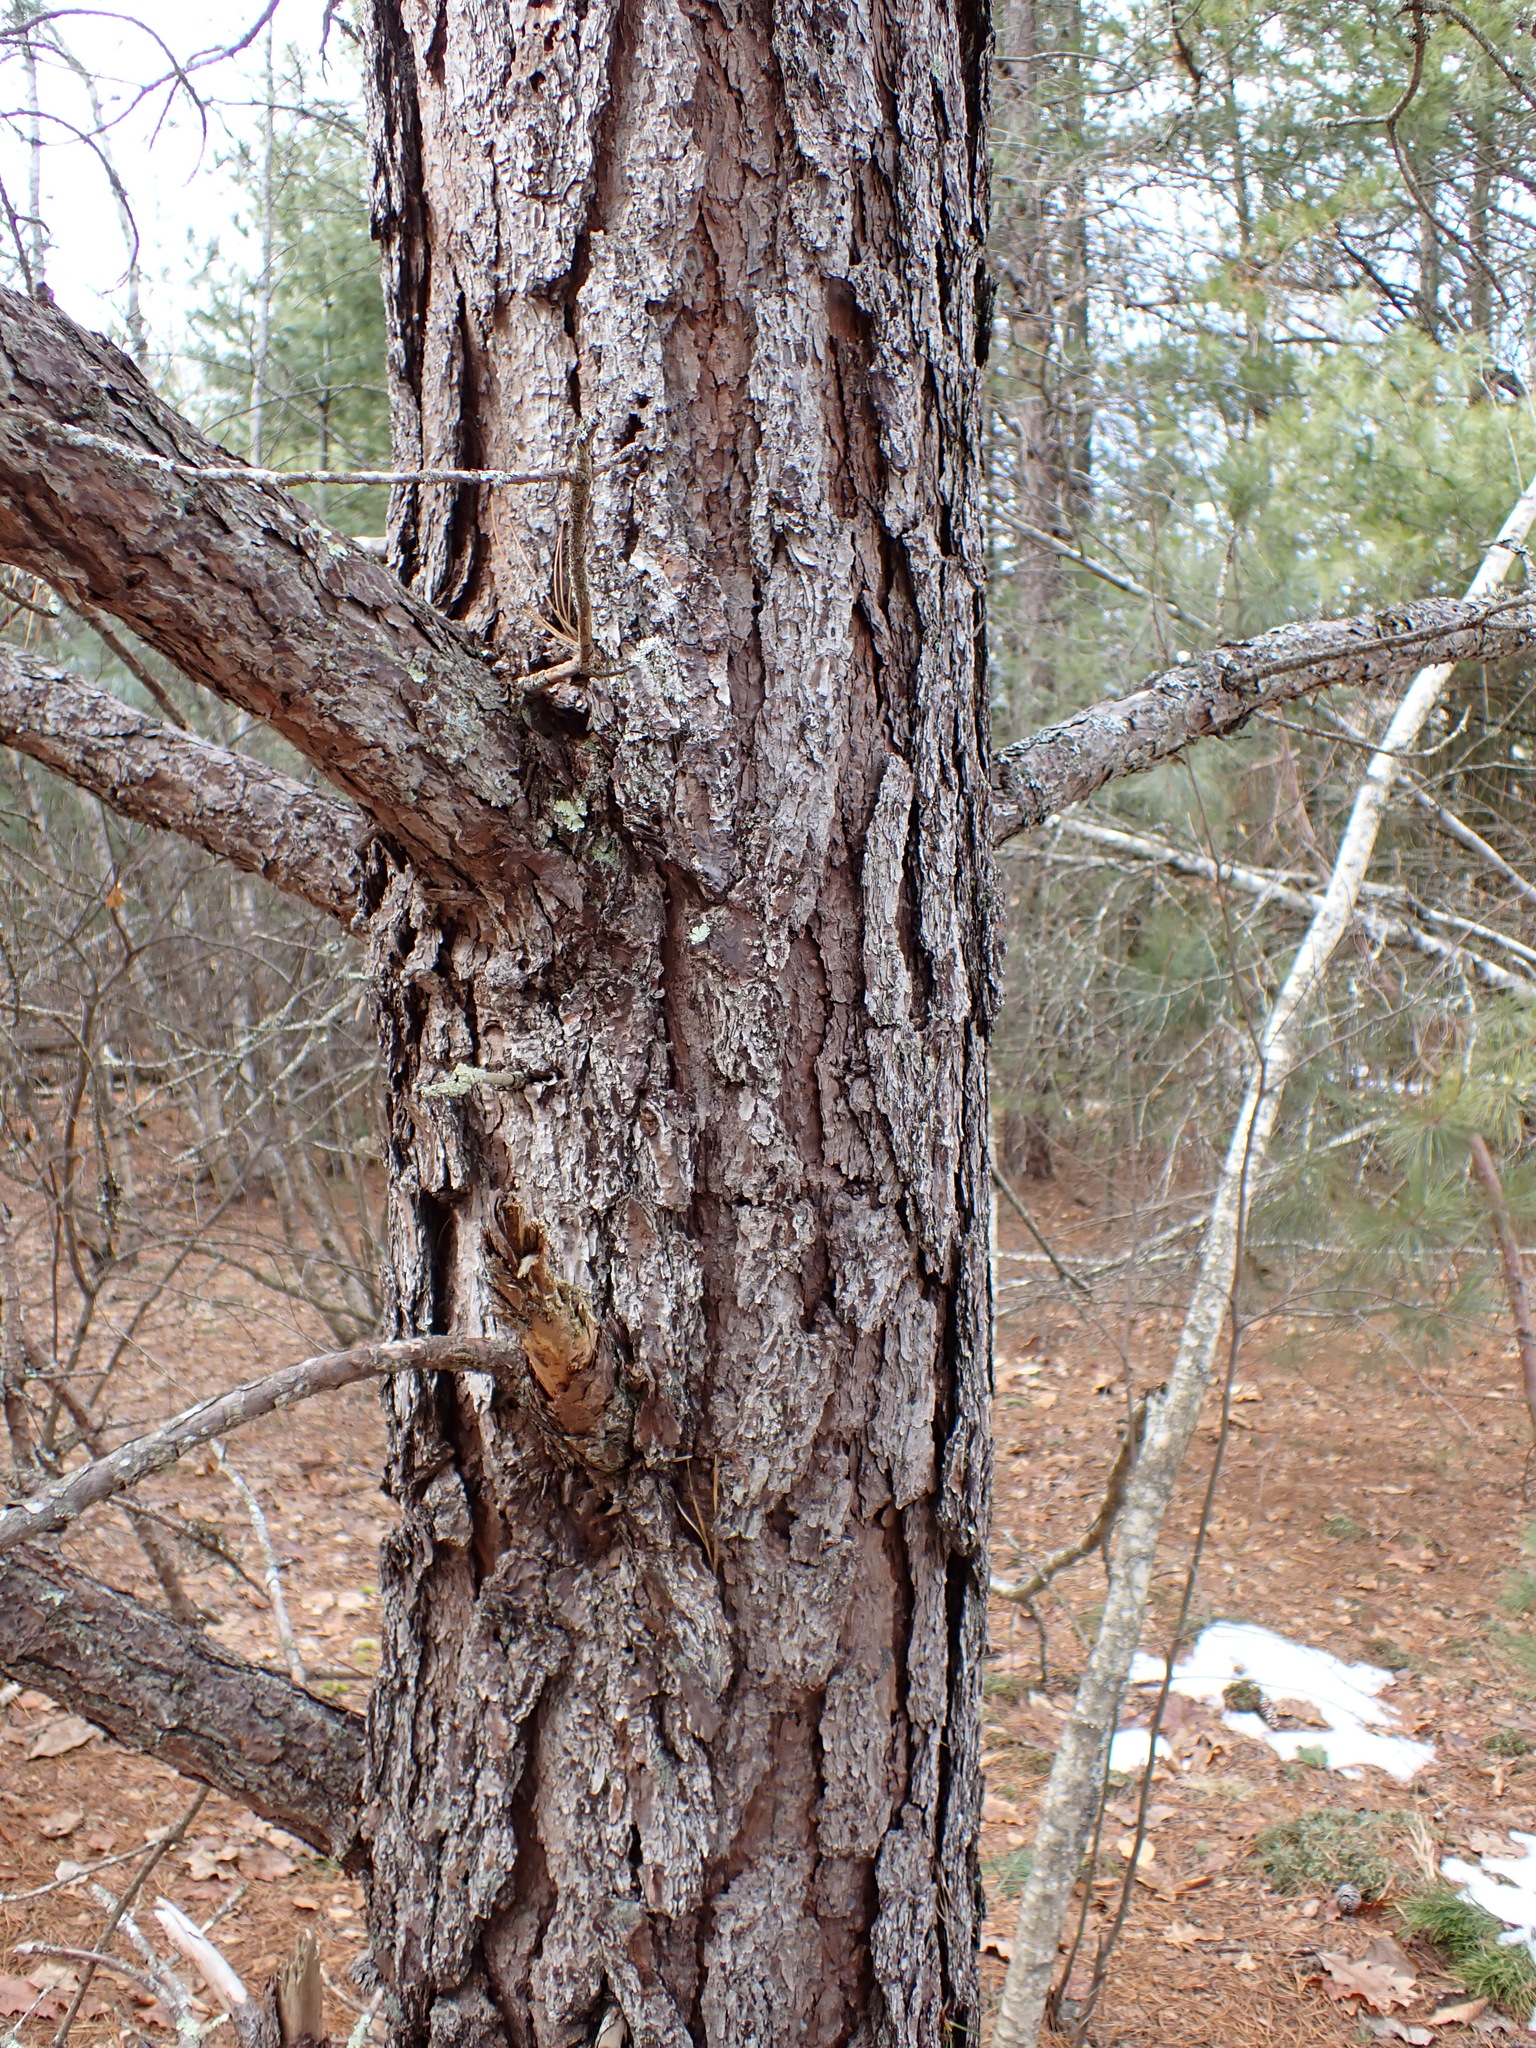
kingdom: Plantae
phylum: Tracheophyta
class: Pinopsida
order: Pinales
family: Pinaceae
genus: Pinus
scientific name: Pinus rigida
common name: Pitch pine
